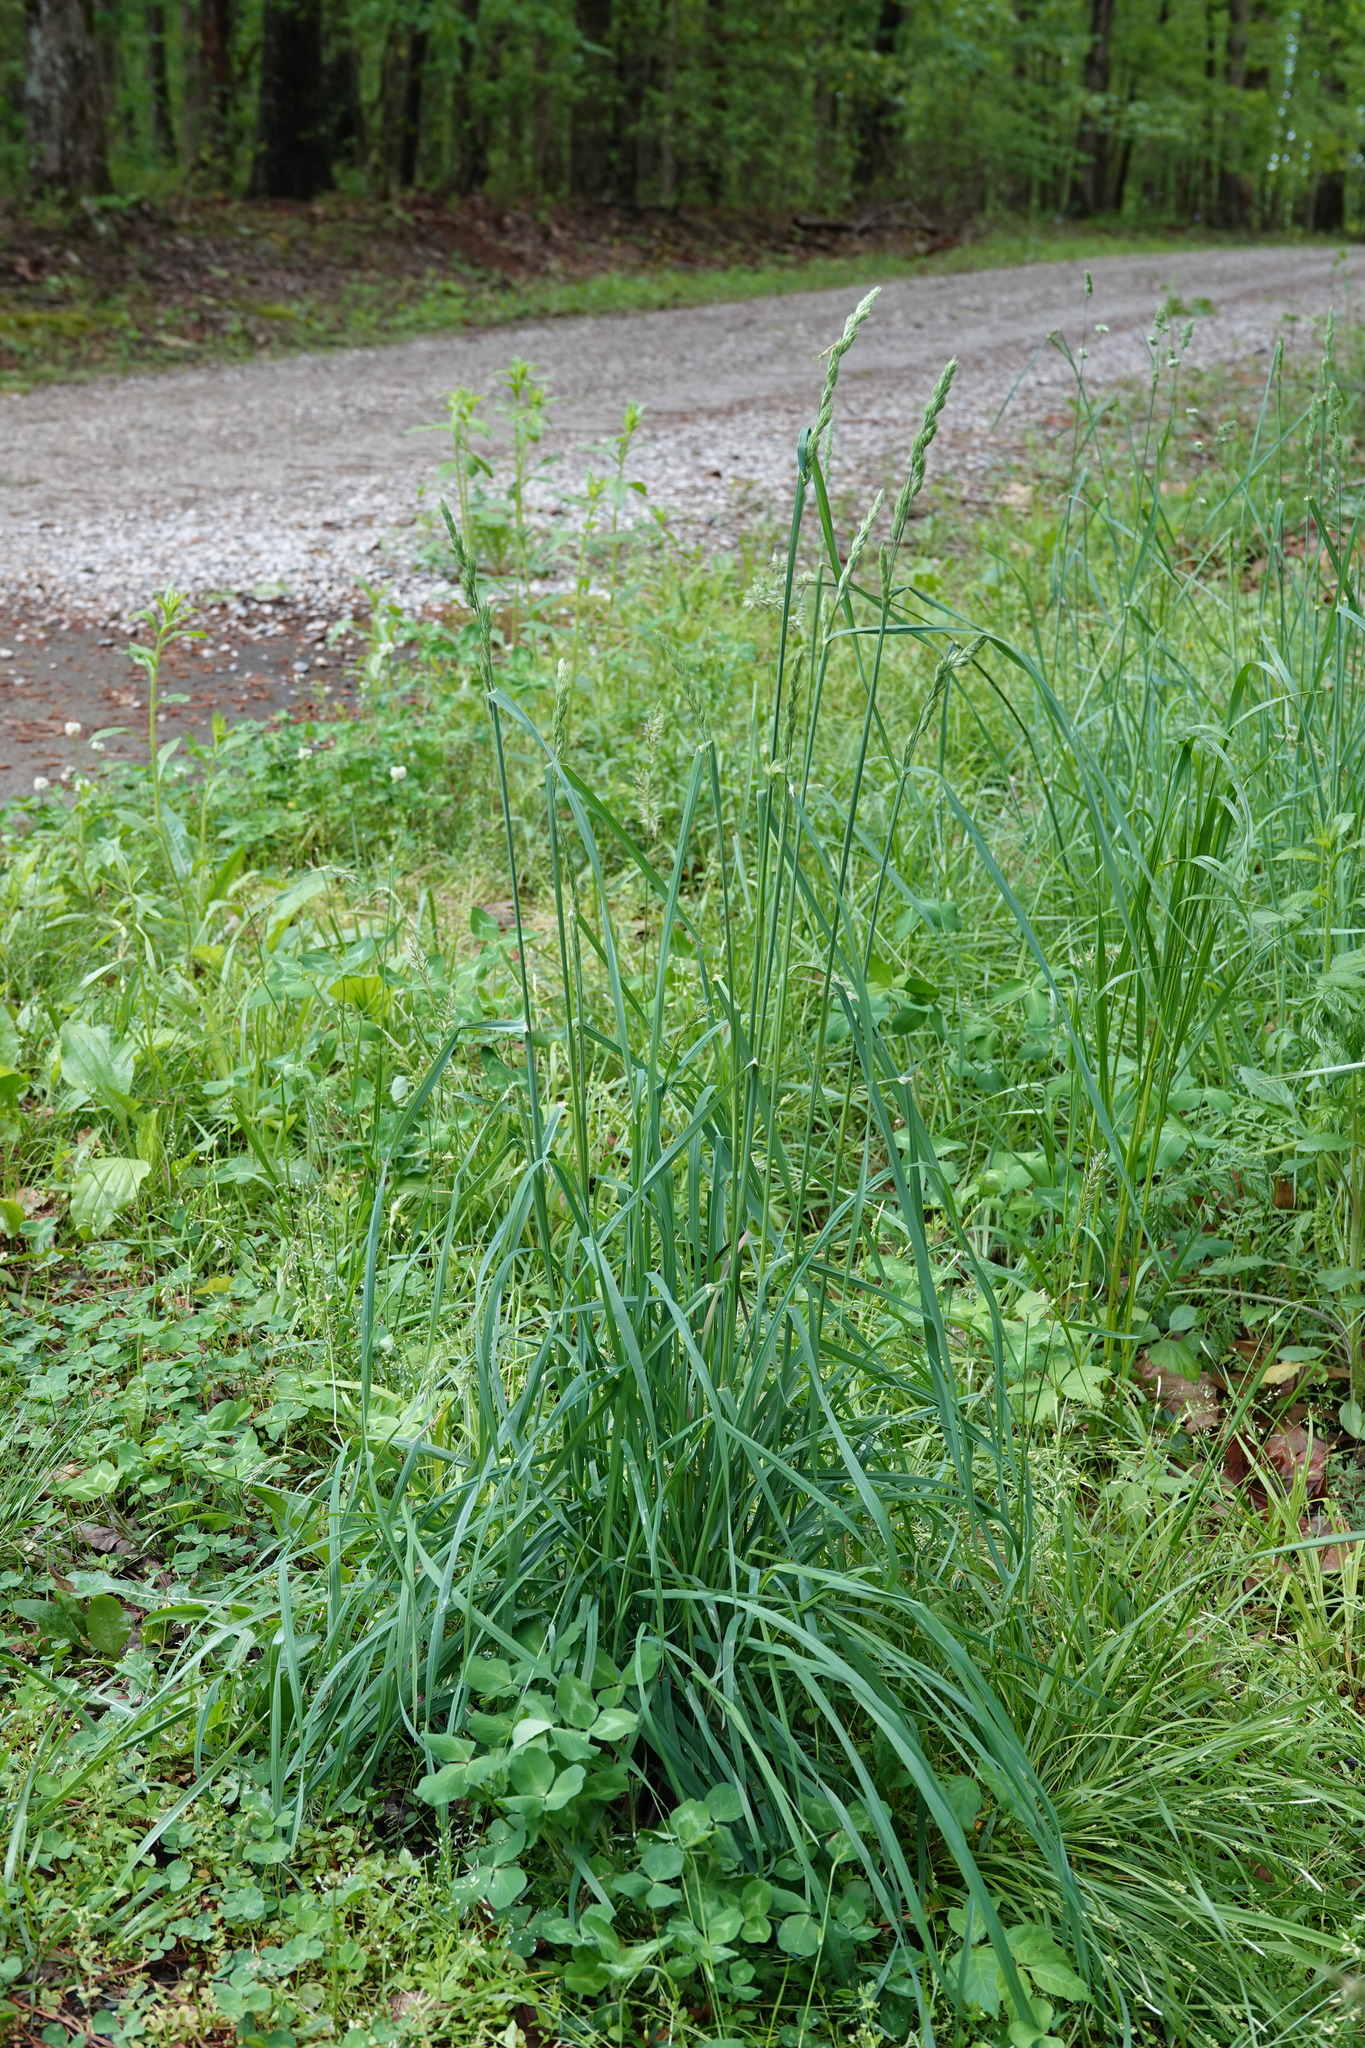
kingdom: Plantae
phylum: Tracheophyta
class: Liliopsida
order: Poales
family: Poaceae
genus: Dactylis
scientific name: Dactylis glomerata
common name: Orchardgrass
